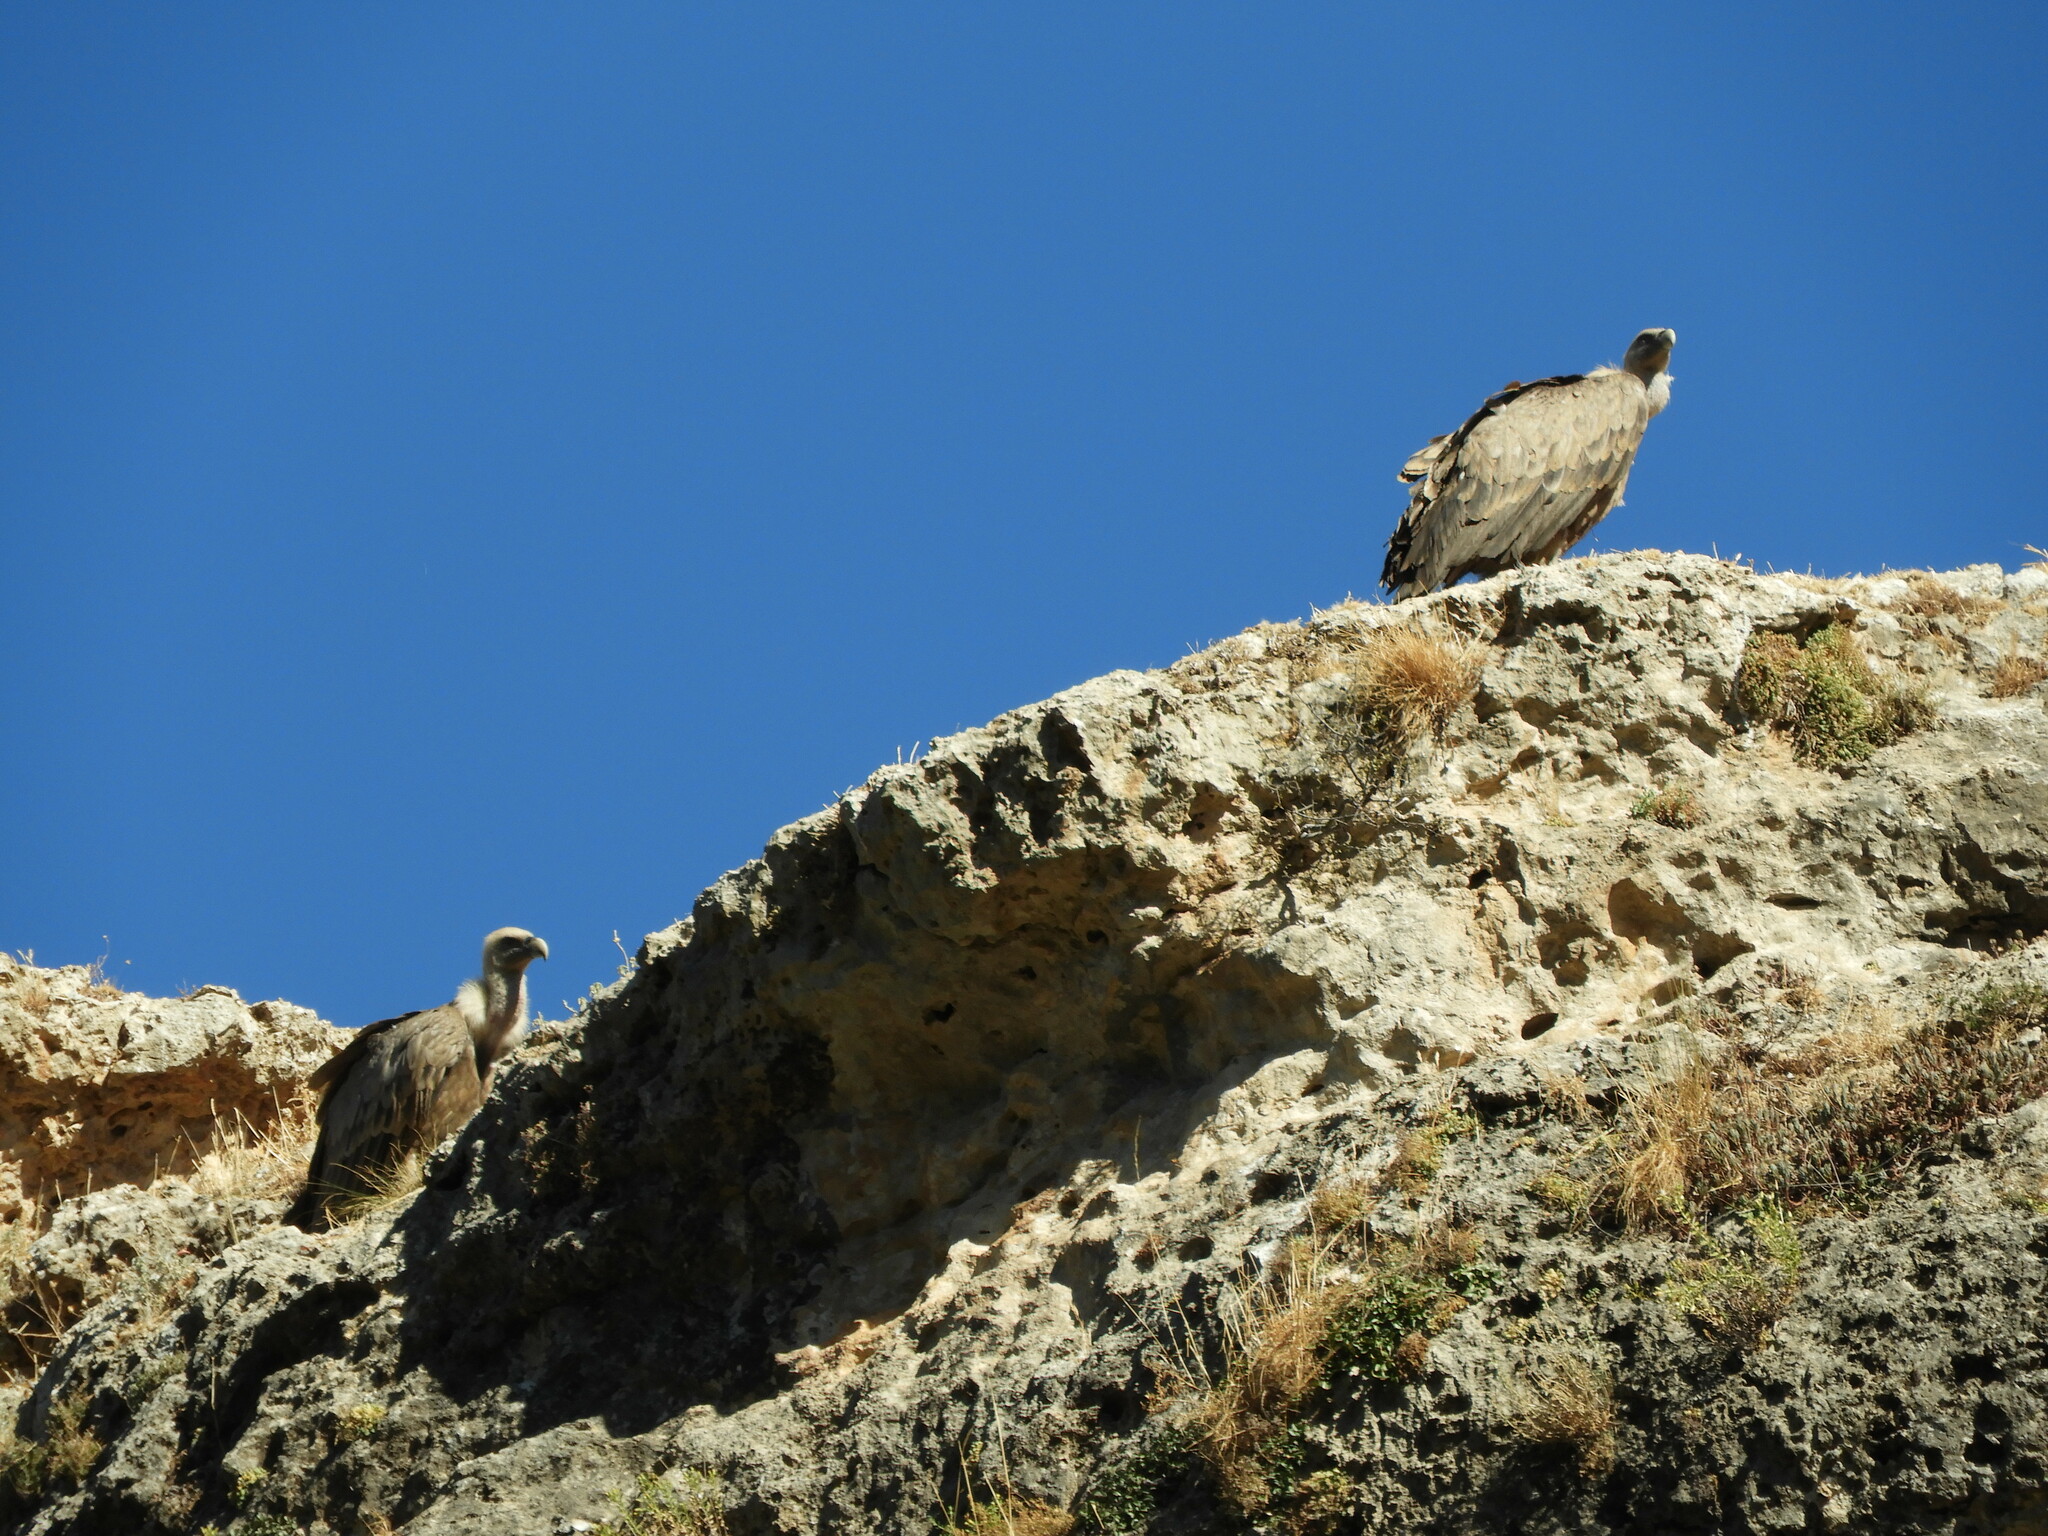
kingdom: Animalia
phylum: Chordata
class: Aves
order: Accipitriformes
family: Accipitridae
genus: Gyps
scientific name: Gyps fulvus
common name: Griffon vulture
